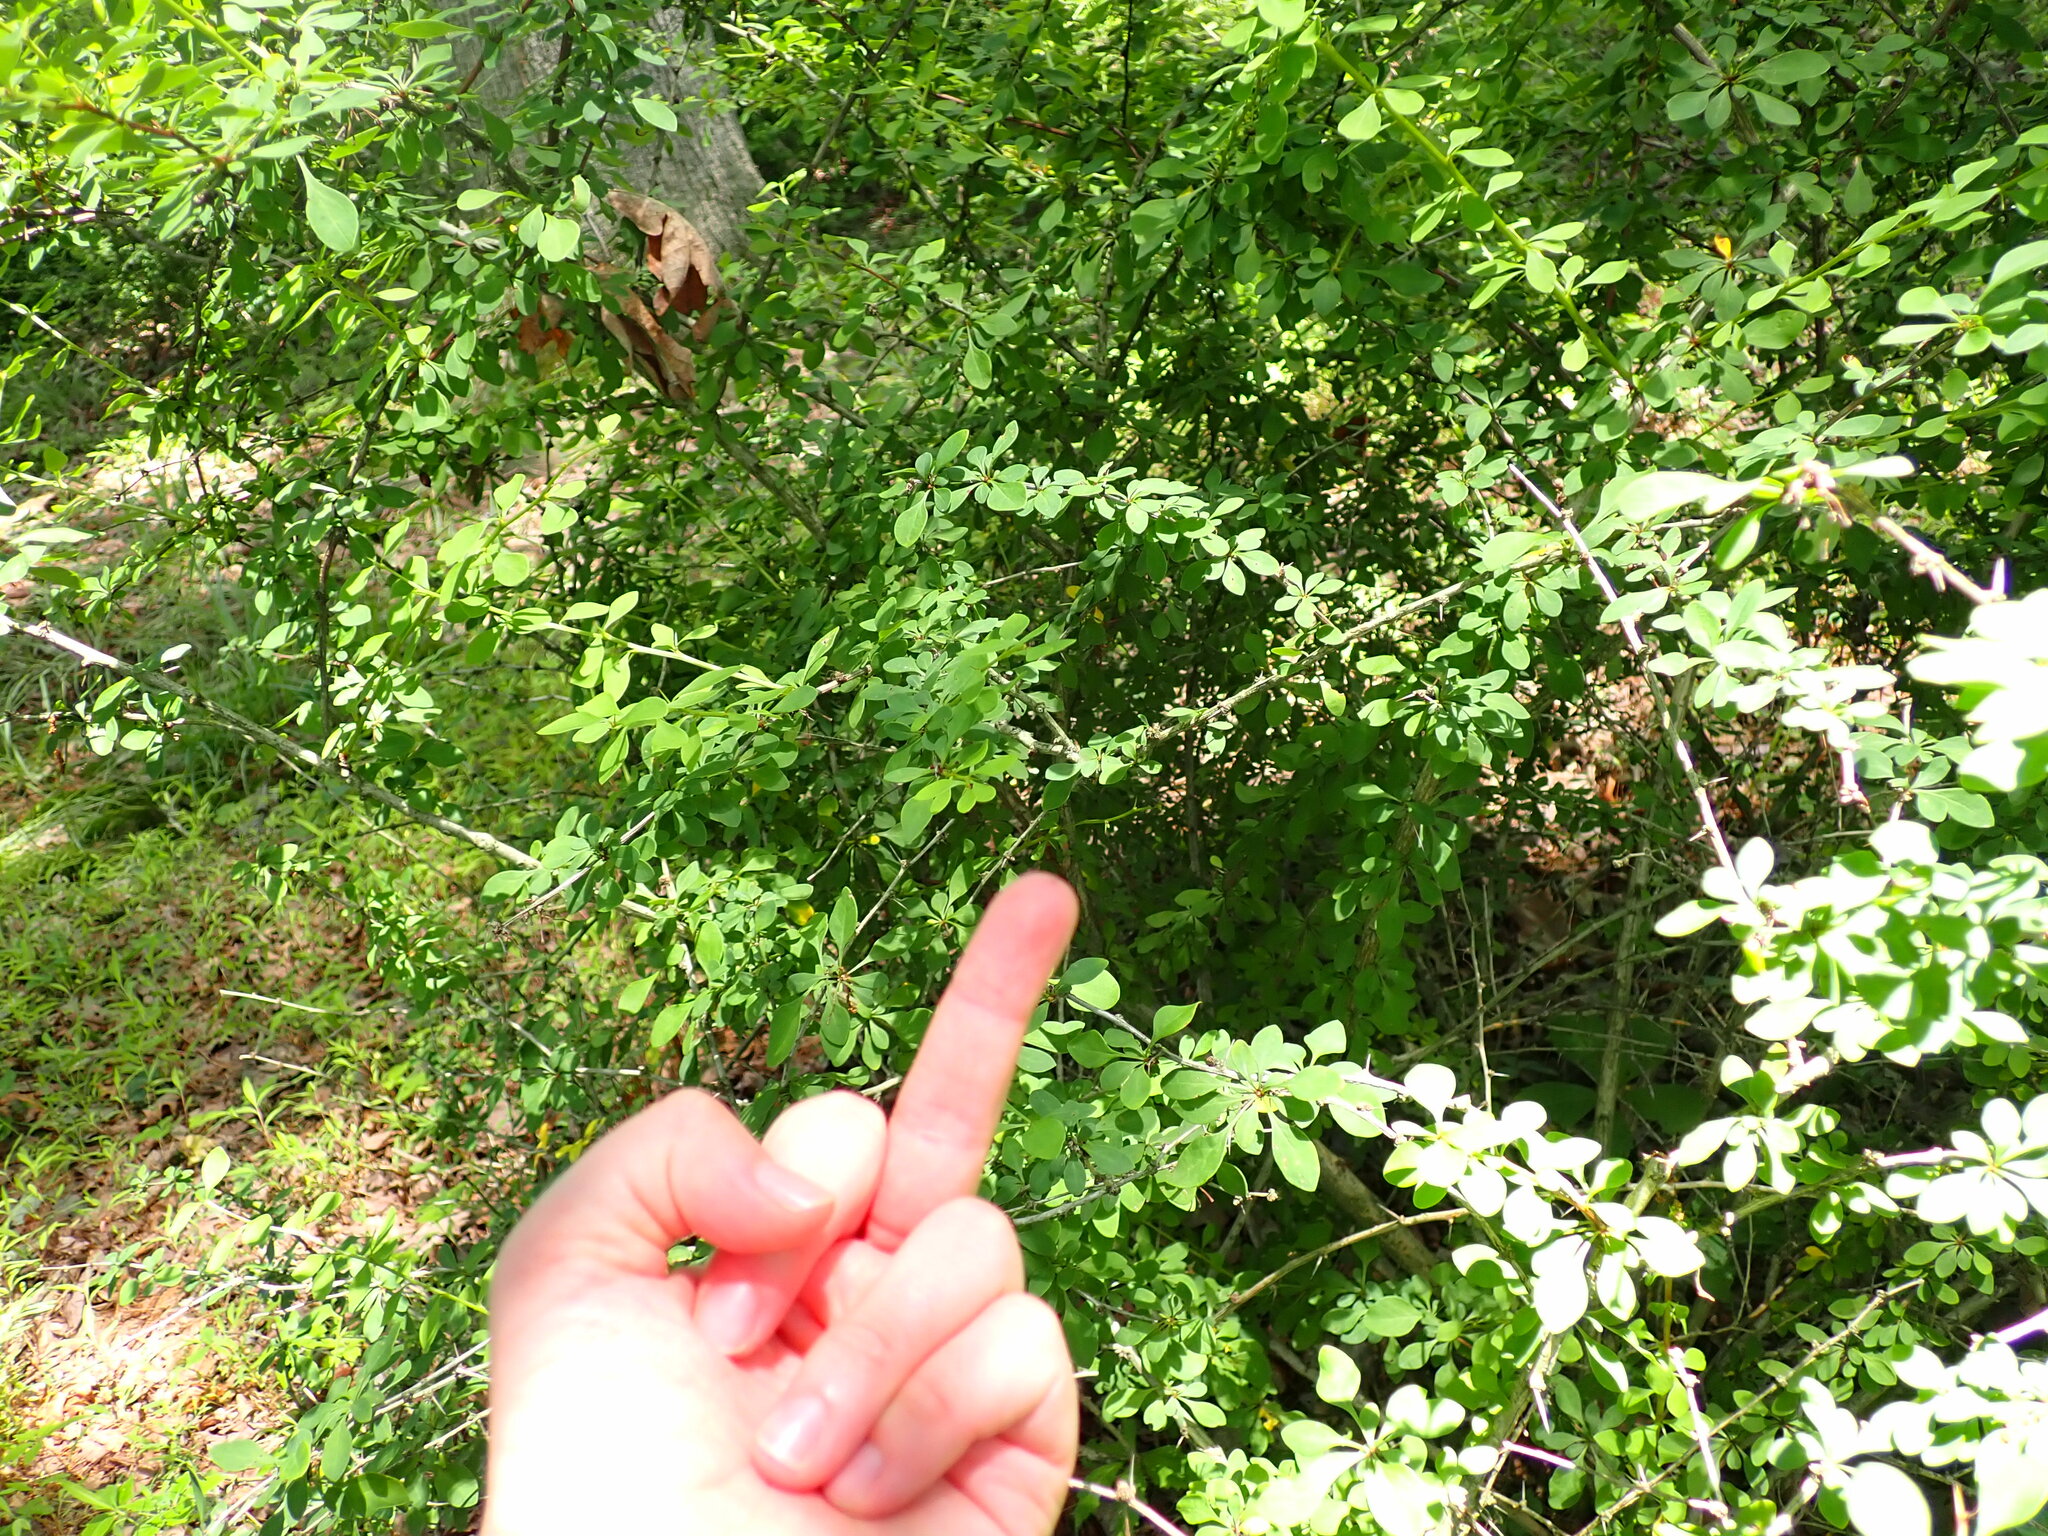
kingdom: Plantae
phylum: Tracheophyta
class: Magnoliopsida
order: Ranunculales
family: Berberidaceae
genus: Berberis
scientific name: Berberis thunbergii
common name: Japanese barberry
